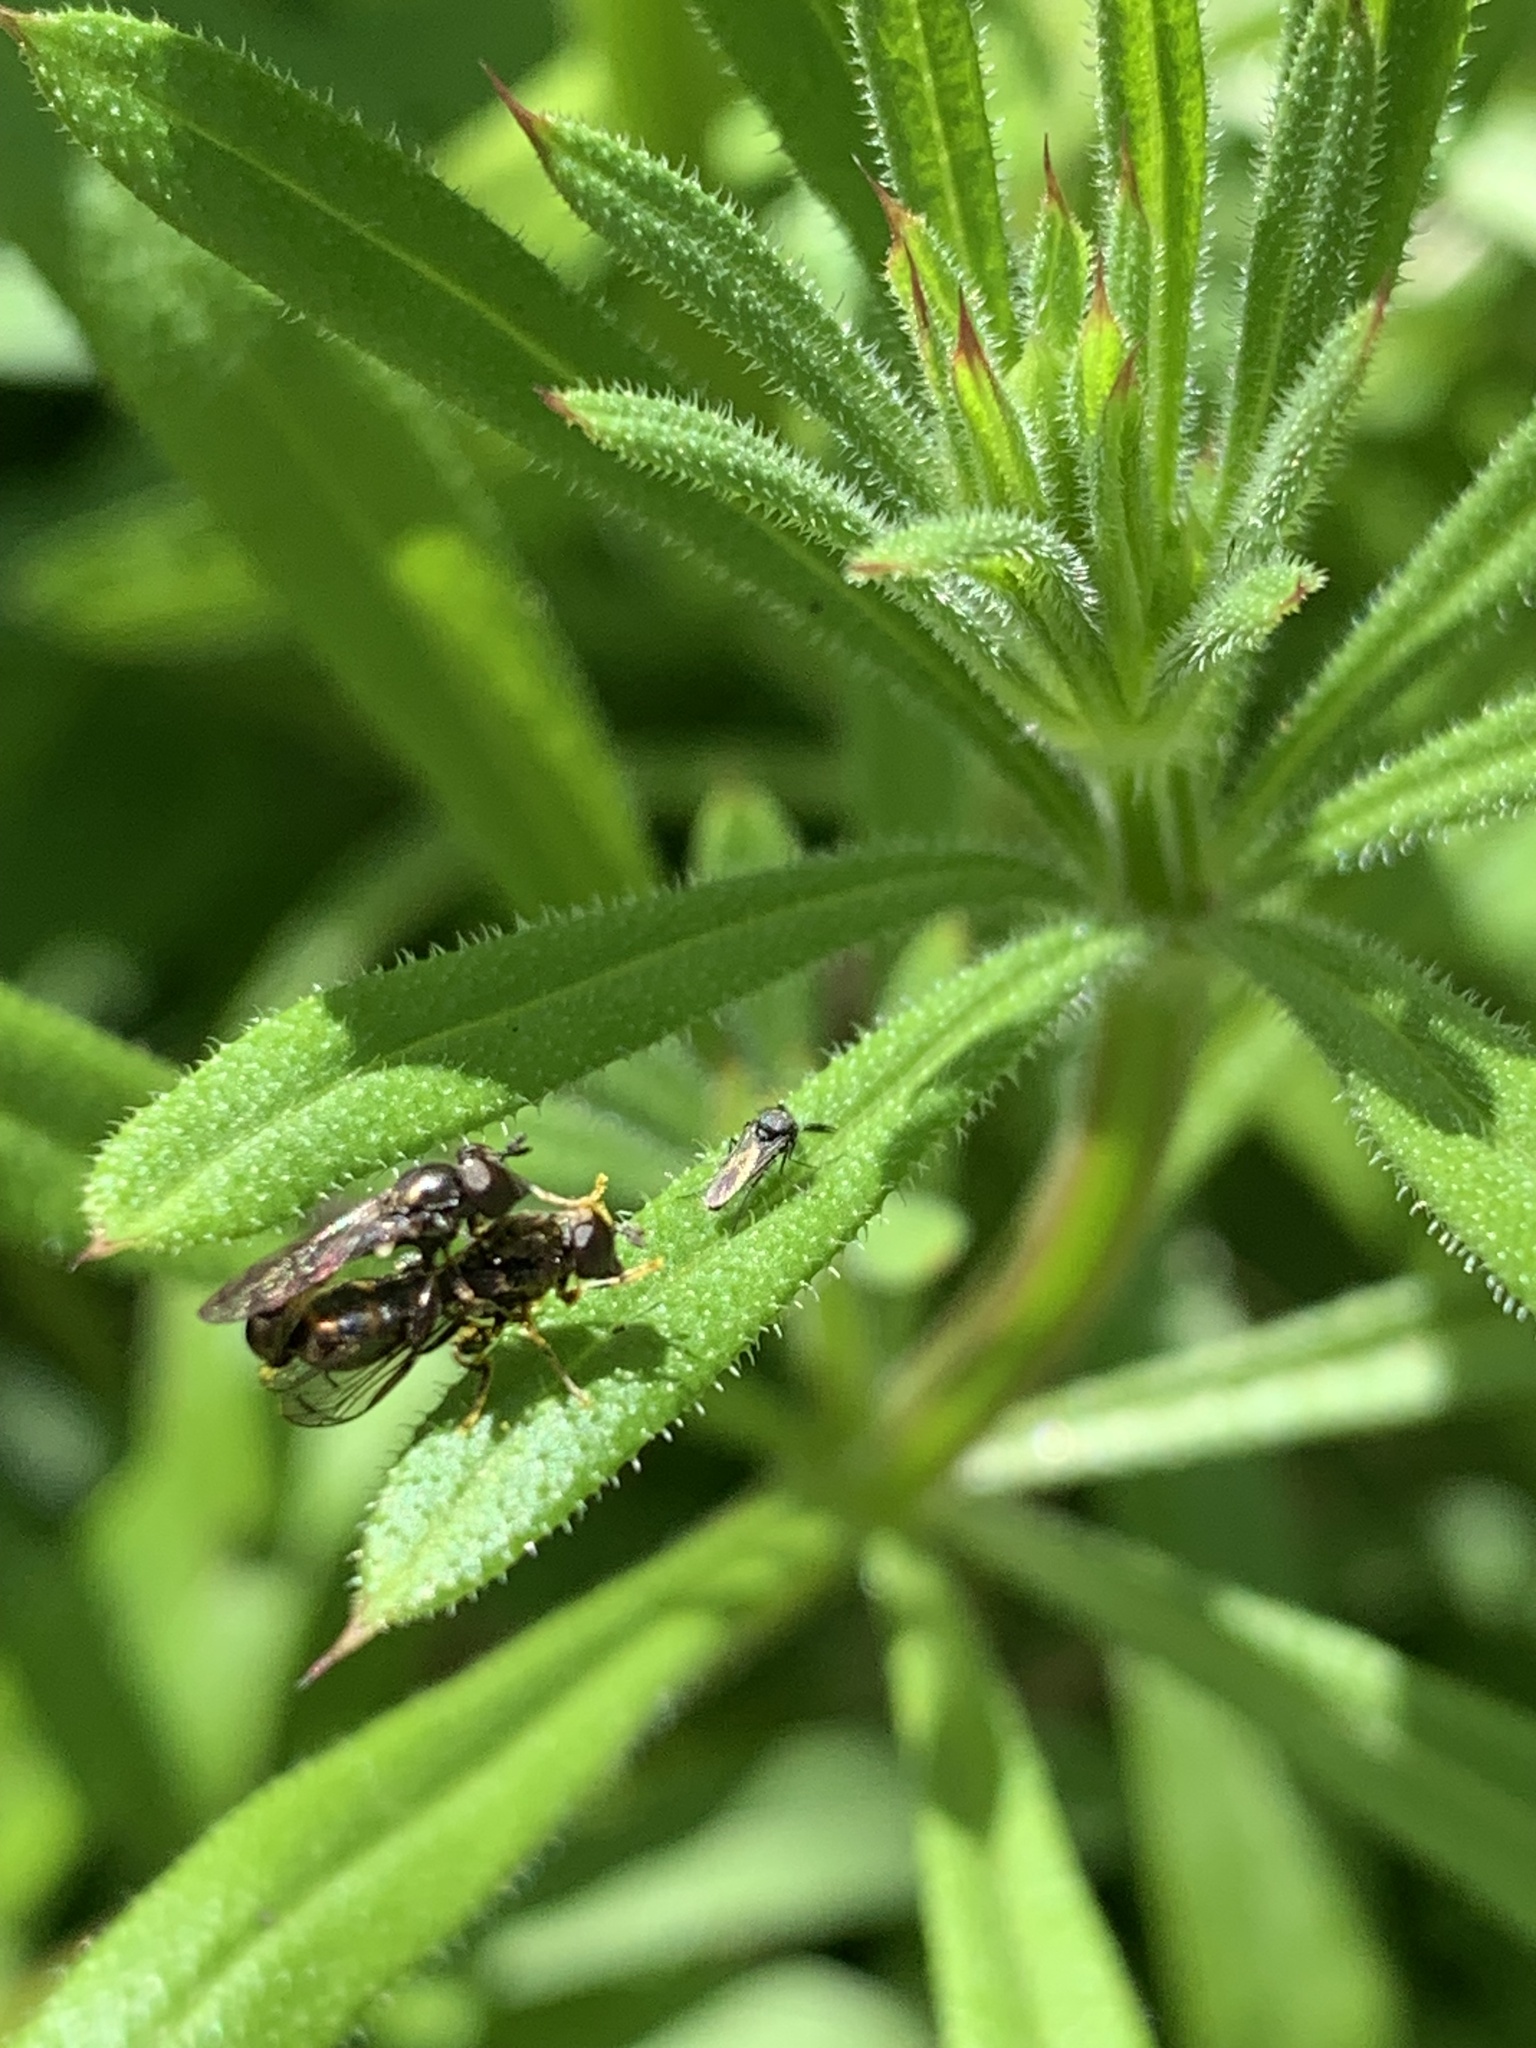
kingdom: Animalia
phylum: Arthropoda
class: Insecta
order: Diptera
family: Syrphidae
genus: Neoascia
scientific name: Neoascia
